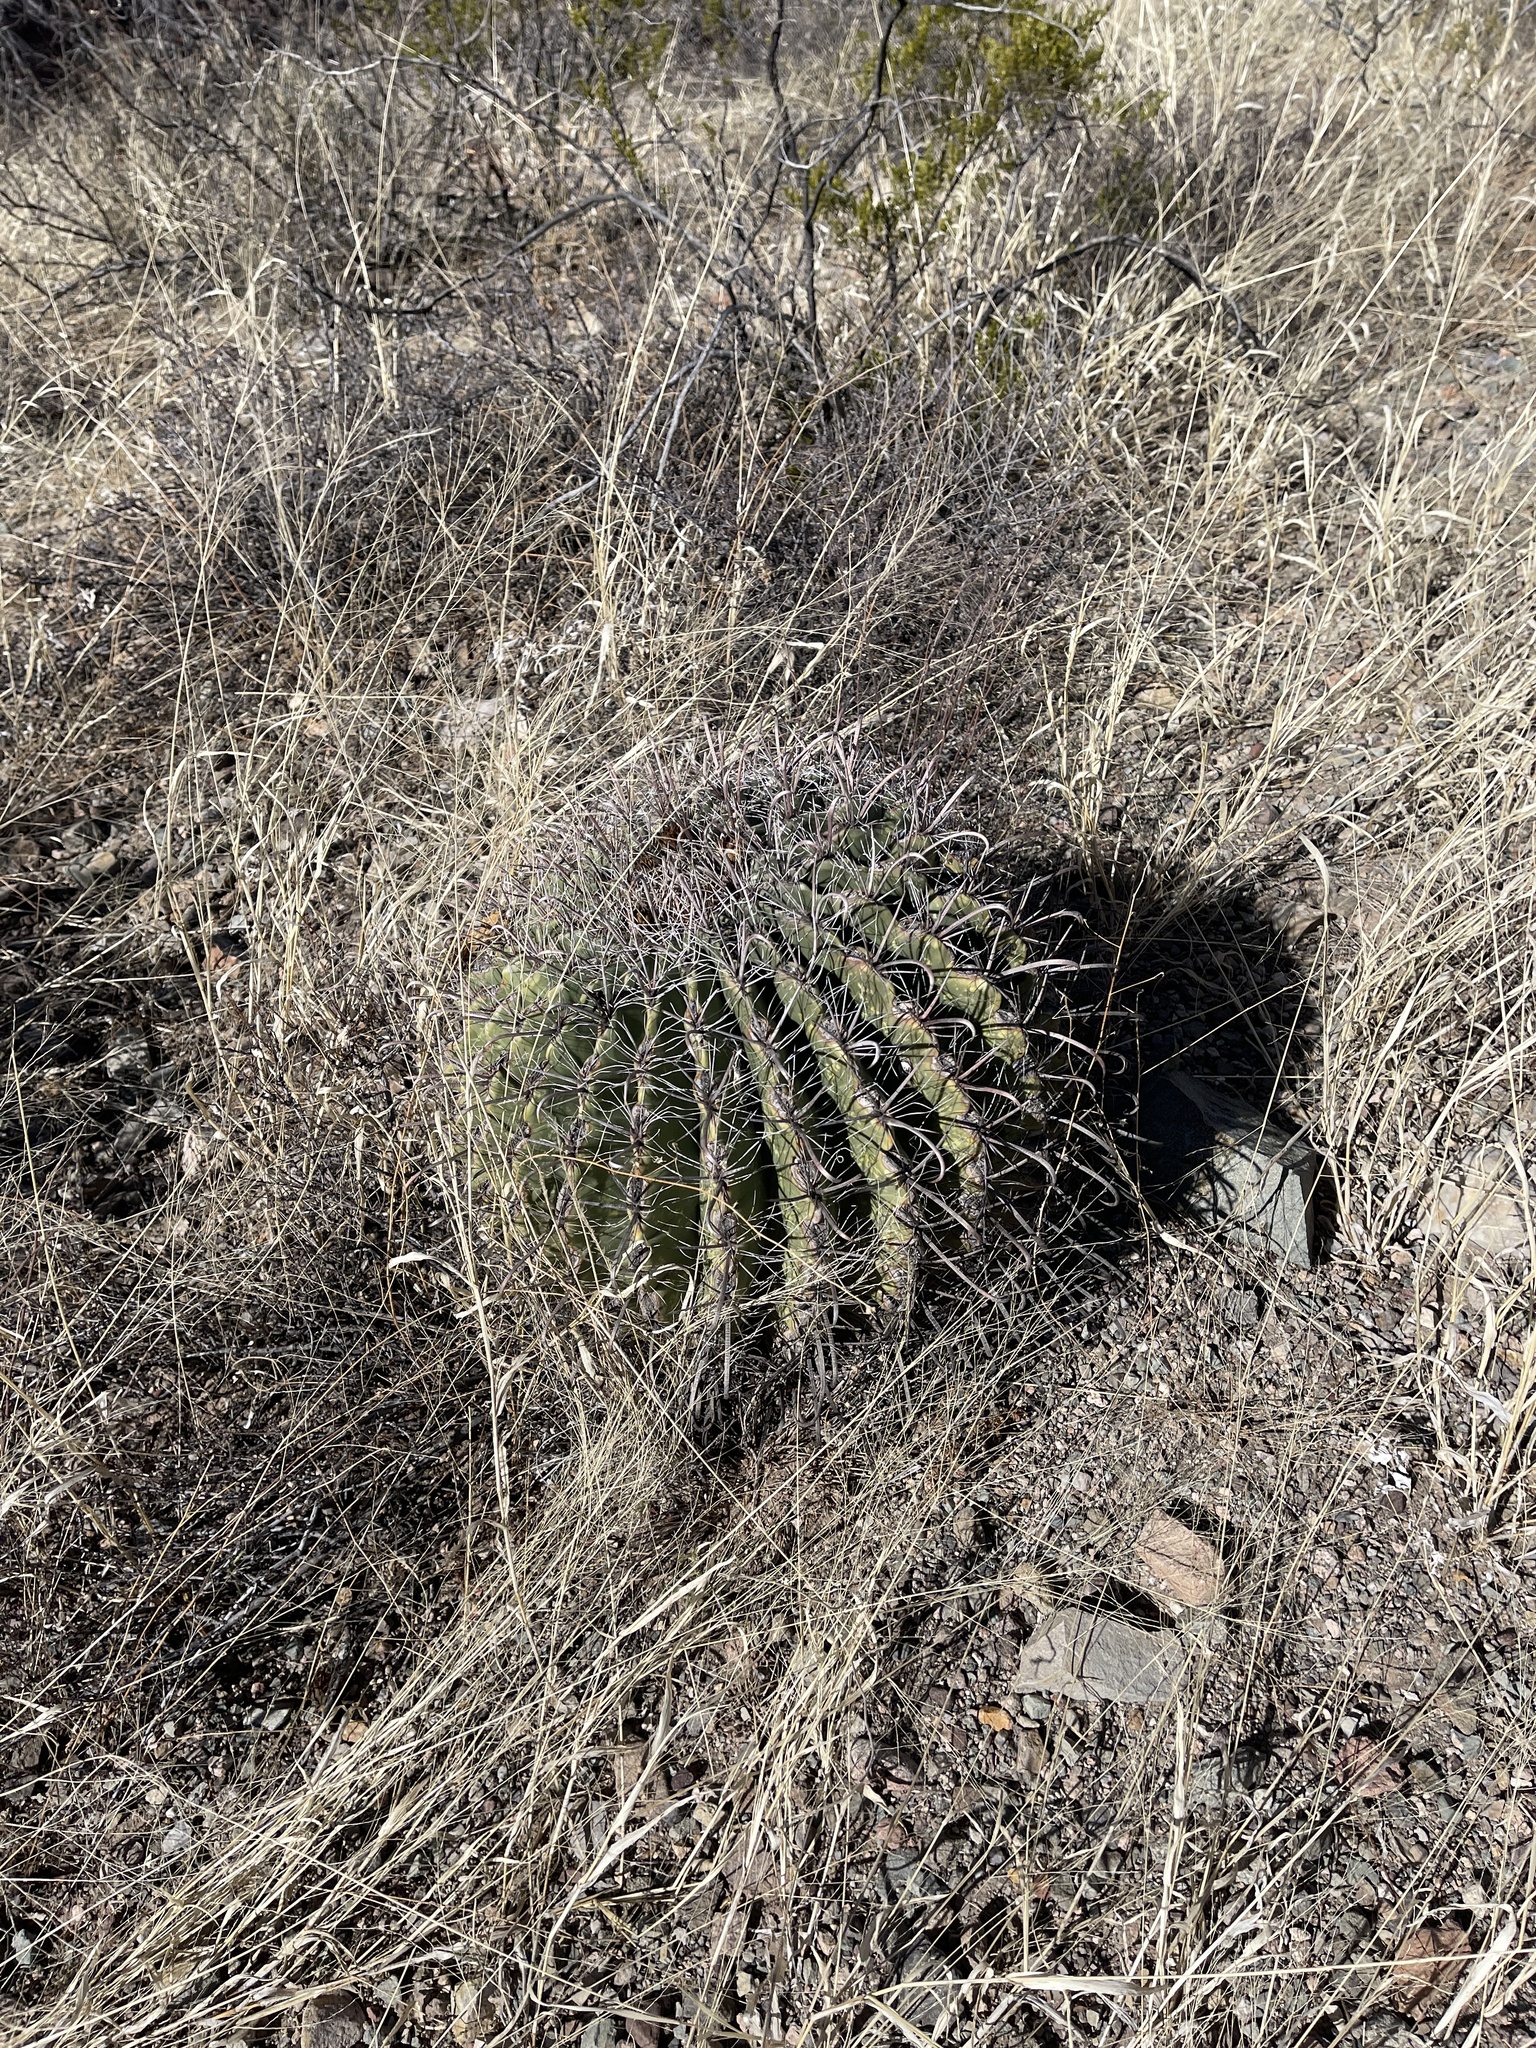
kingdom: Plantae
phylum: Tracheophyta
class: Magnoliopsida
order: Caryophyllales
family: Cactaceae
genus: Ferocactus
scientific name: Ferocactus wislizeni
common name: Candy barrel cactus
